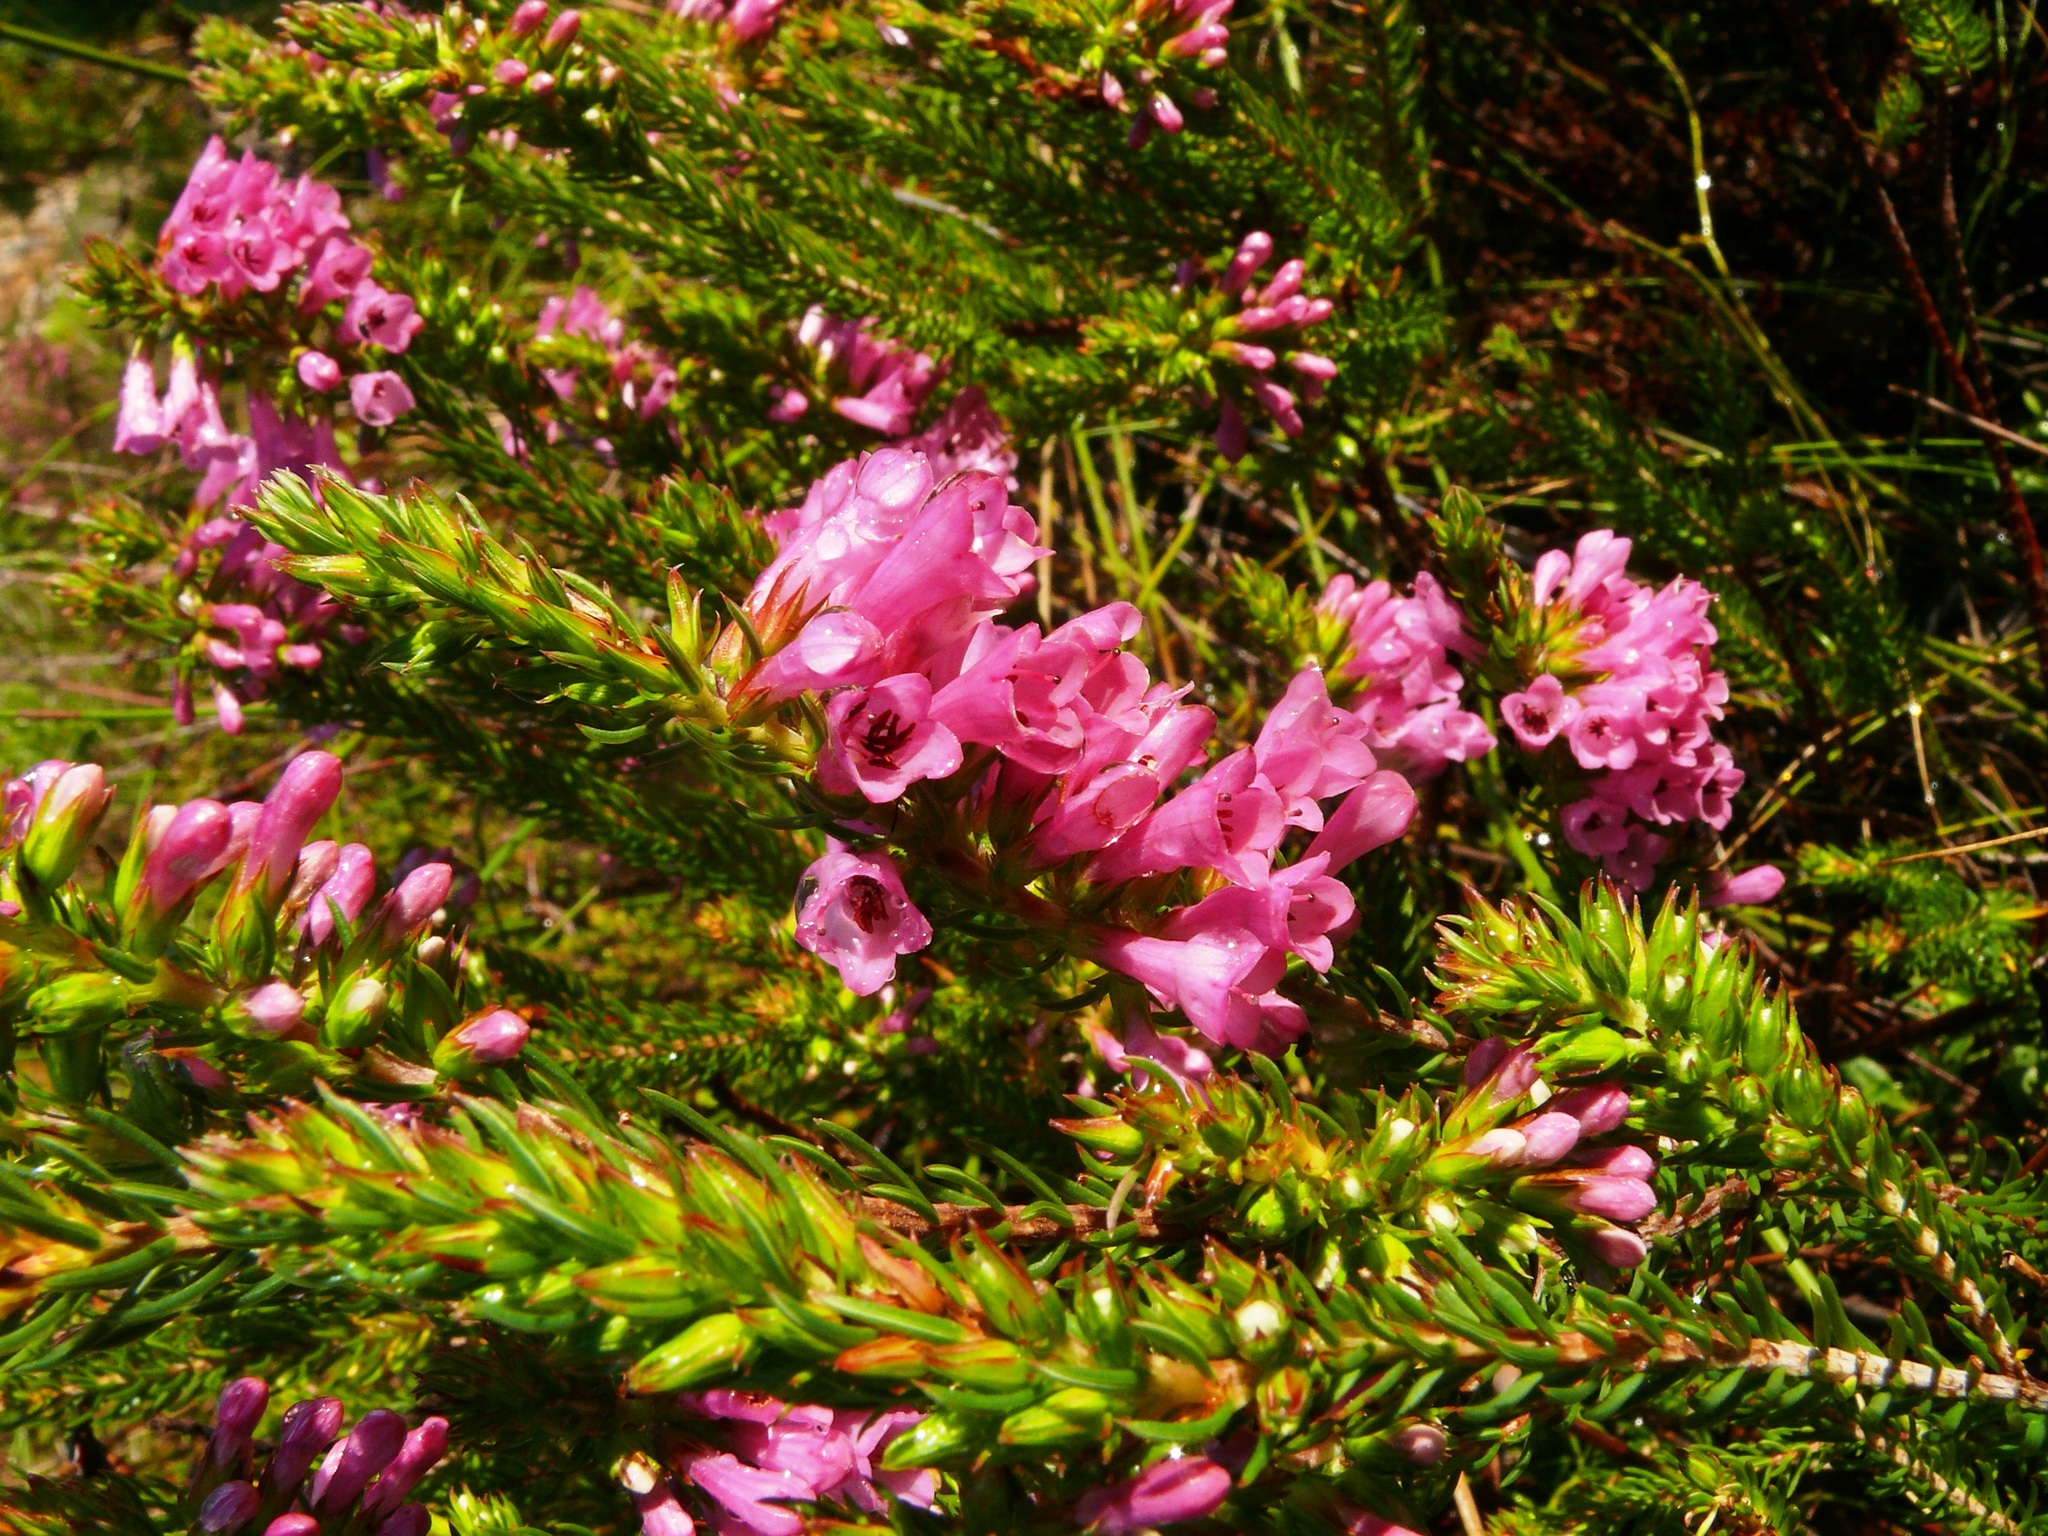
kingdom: Plantae
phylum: Tracheophyta
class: Magnoliopsida
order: Ericales
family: Ericaceae
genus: Erica
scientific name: Erica abietina
